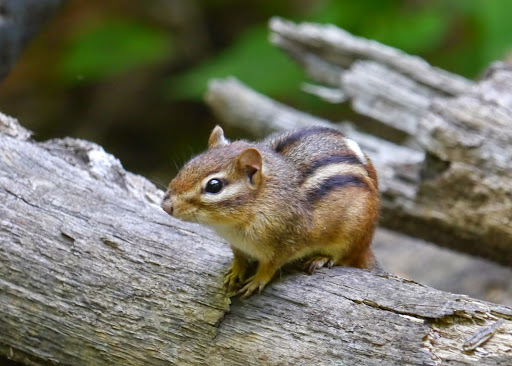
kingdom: Animalia
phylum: Chordata
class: Mammalia
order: Rodentia
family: Sciuridae
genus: Tamias
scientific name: Tamias striatus
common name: Eastern chipmunk
